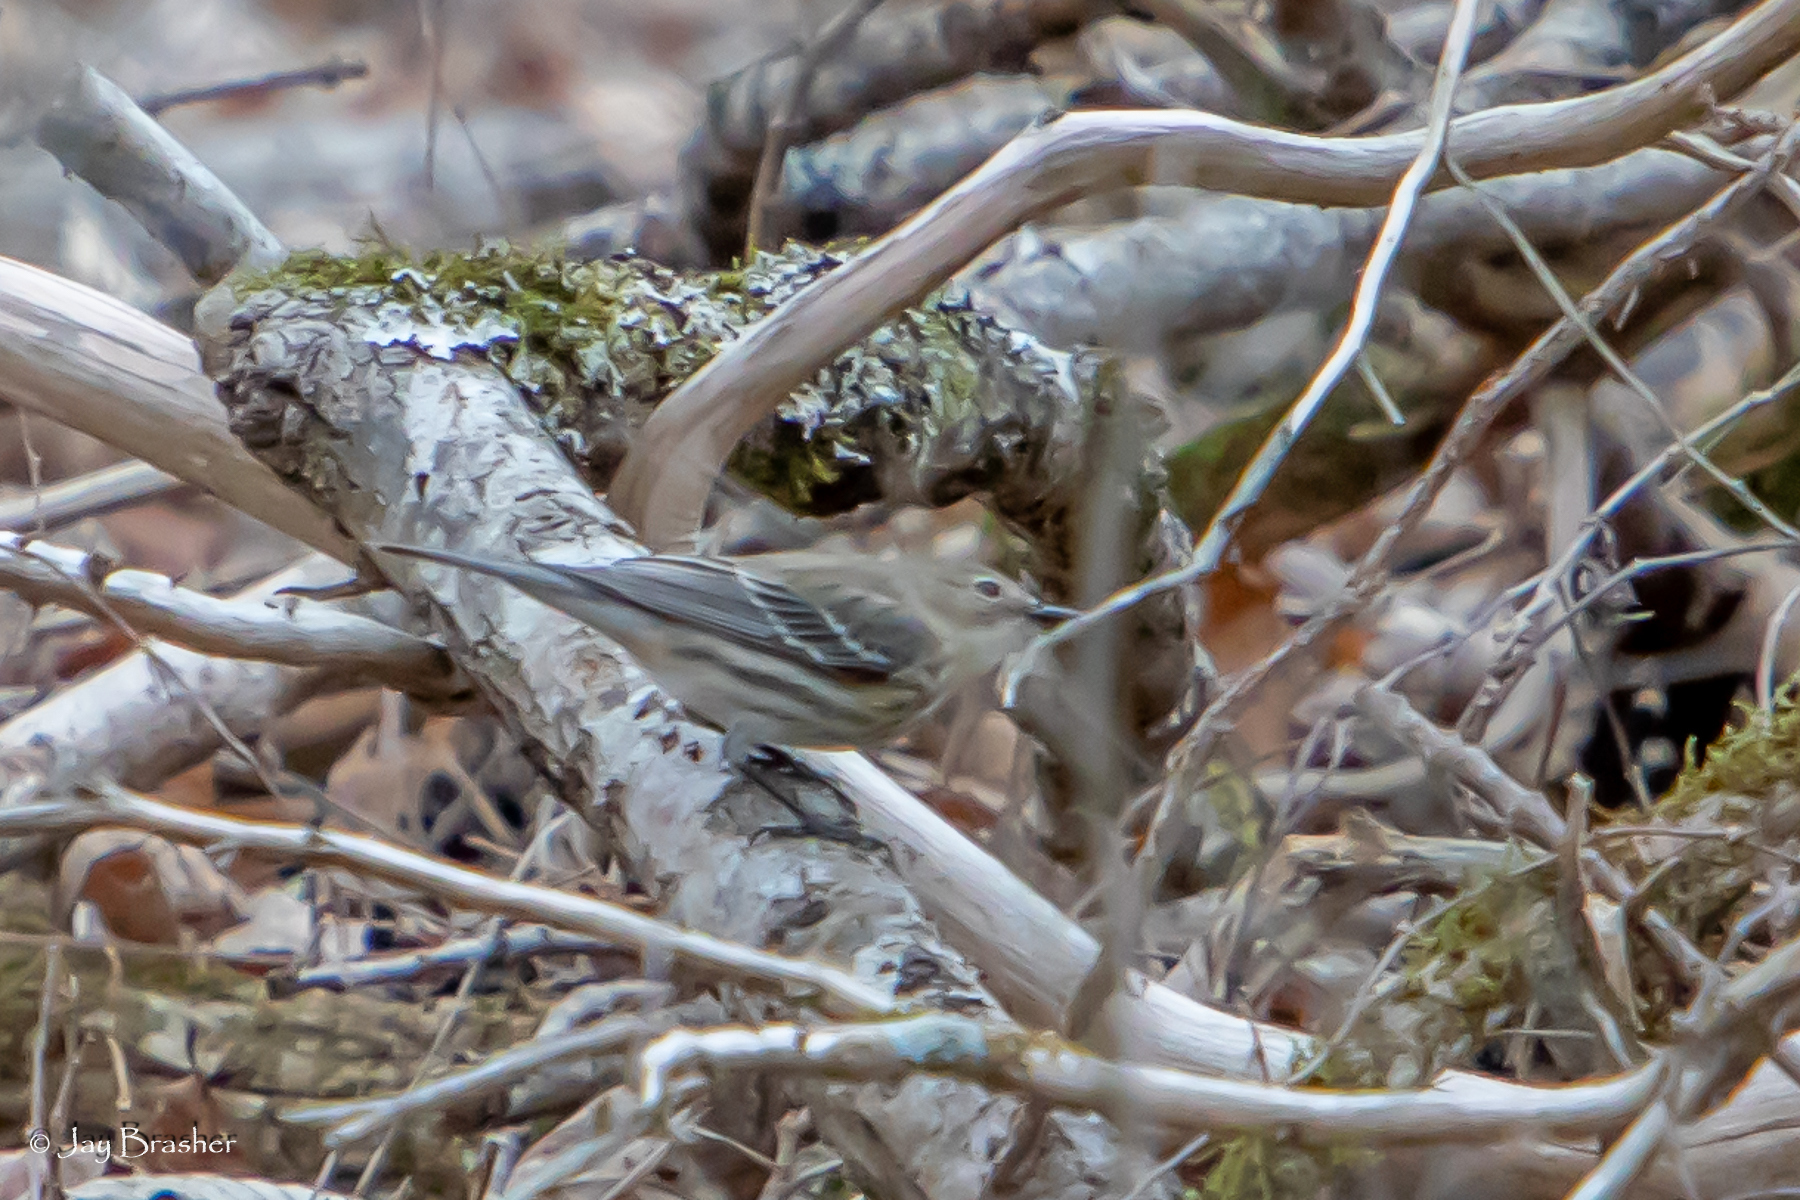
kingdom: Animalia
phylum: Chordata
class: Aves
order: Passeriformes
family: Parulidae
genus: Setophaga
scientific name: Setophaga coronata
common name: Myrtle warbler
